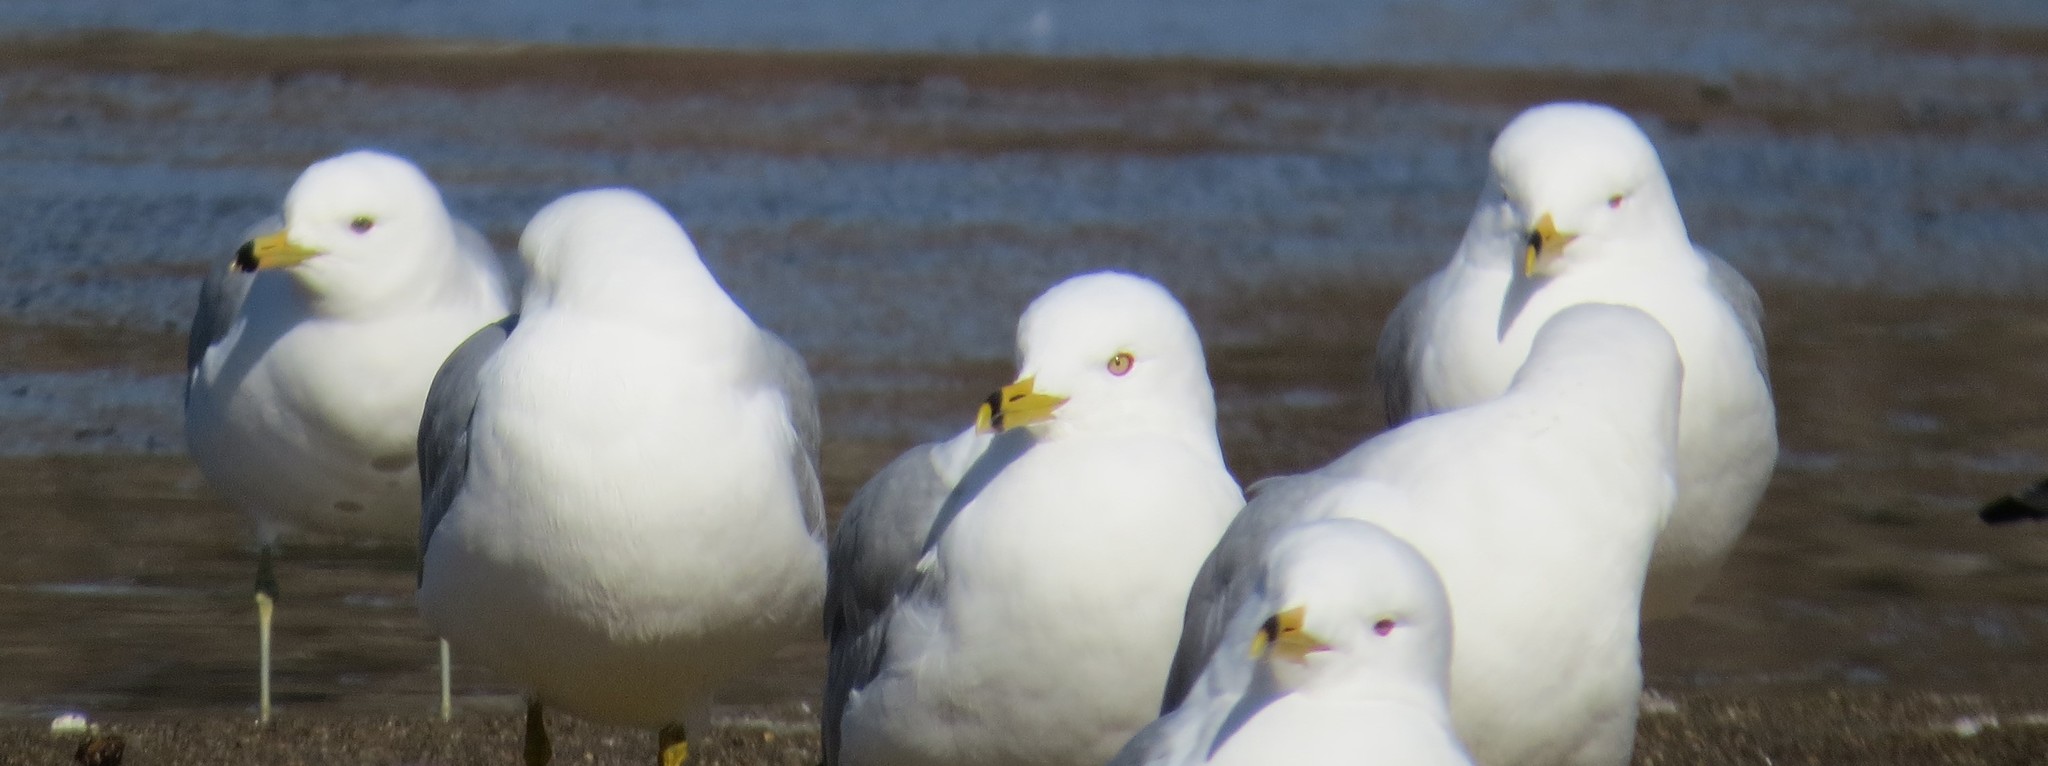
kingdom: Animalia
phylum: Chordata
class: Aves
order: Charadriiformes
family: Laridae
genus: Larus
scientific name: Larus delawarensis
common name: Ring-billed gull
